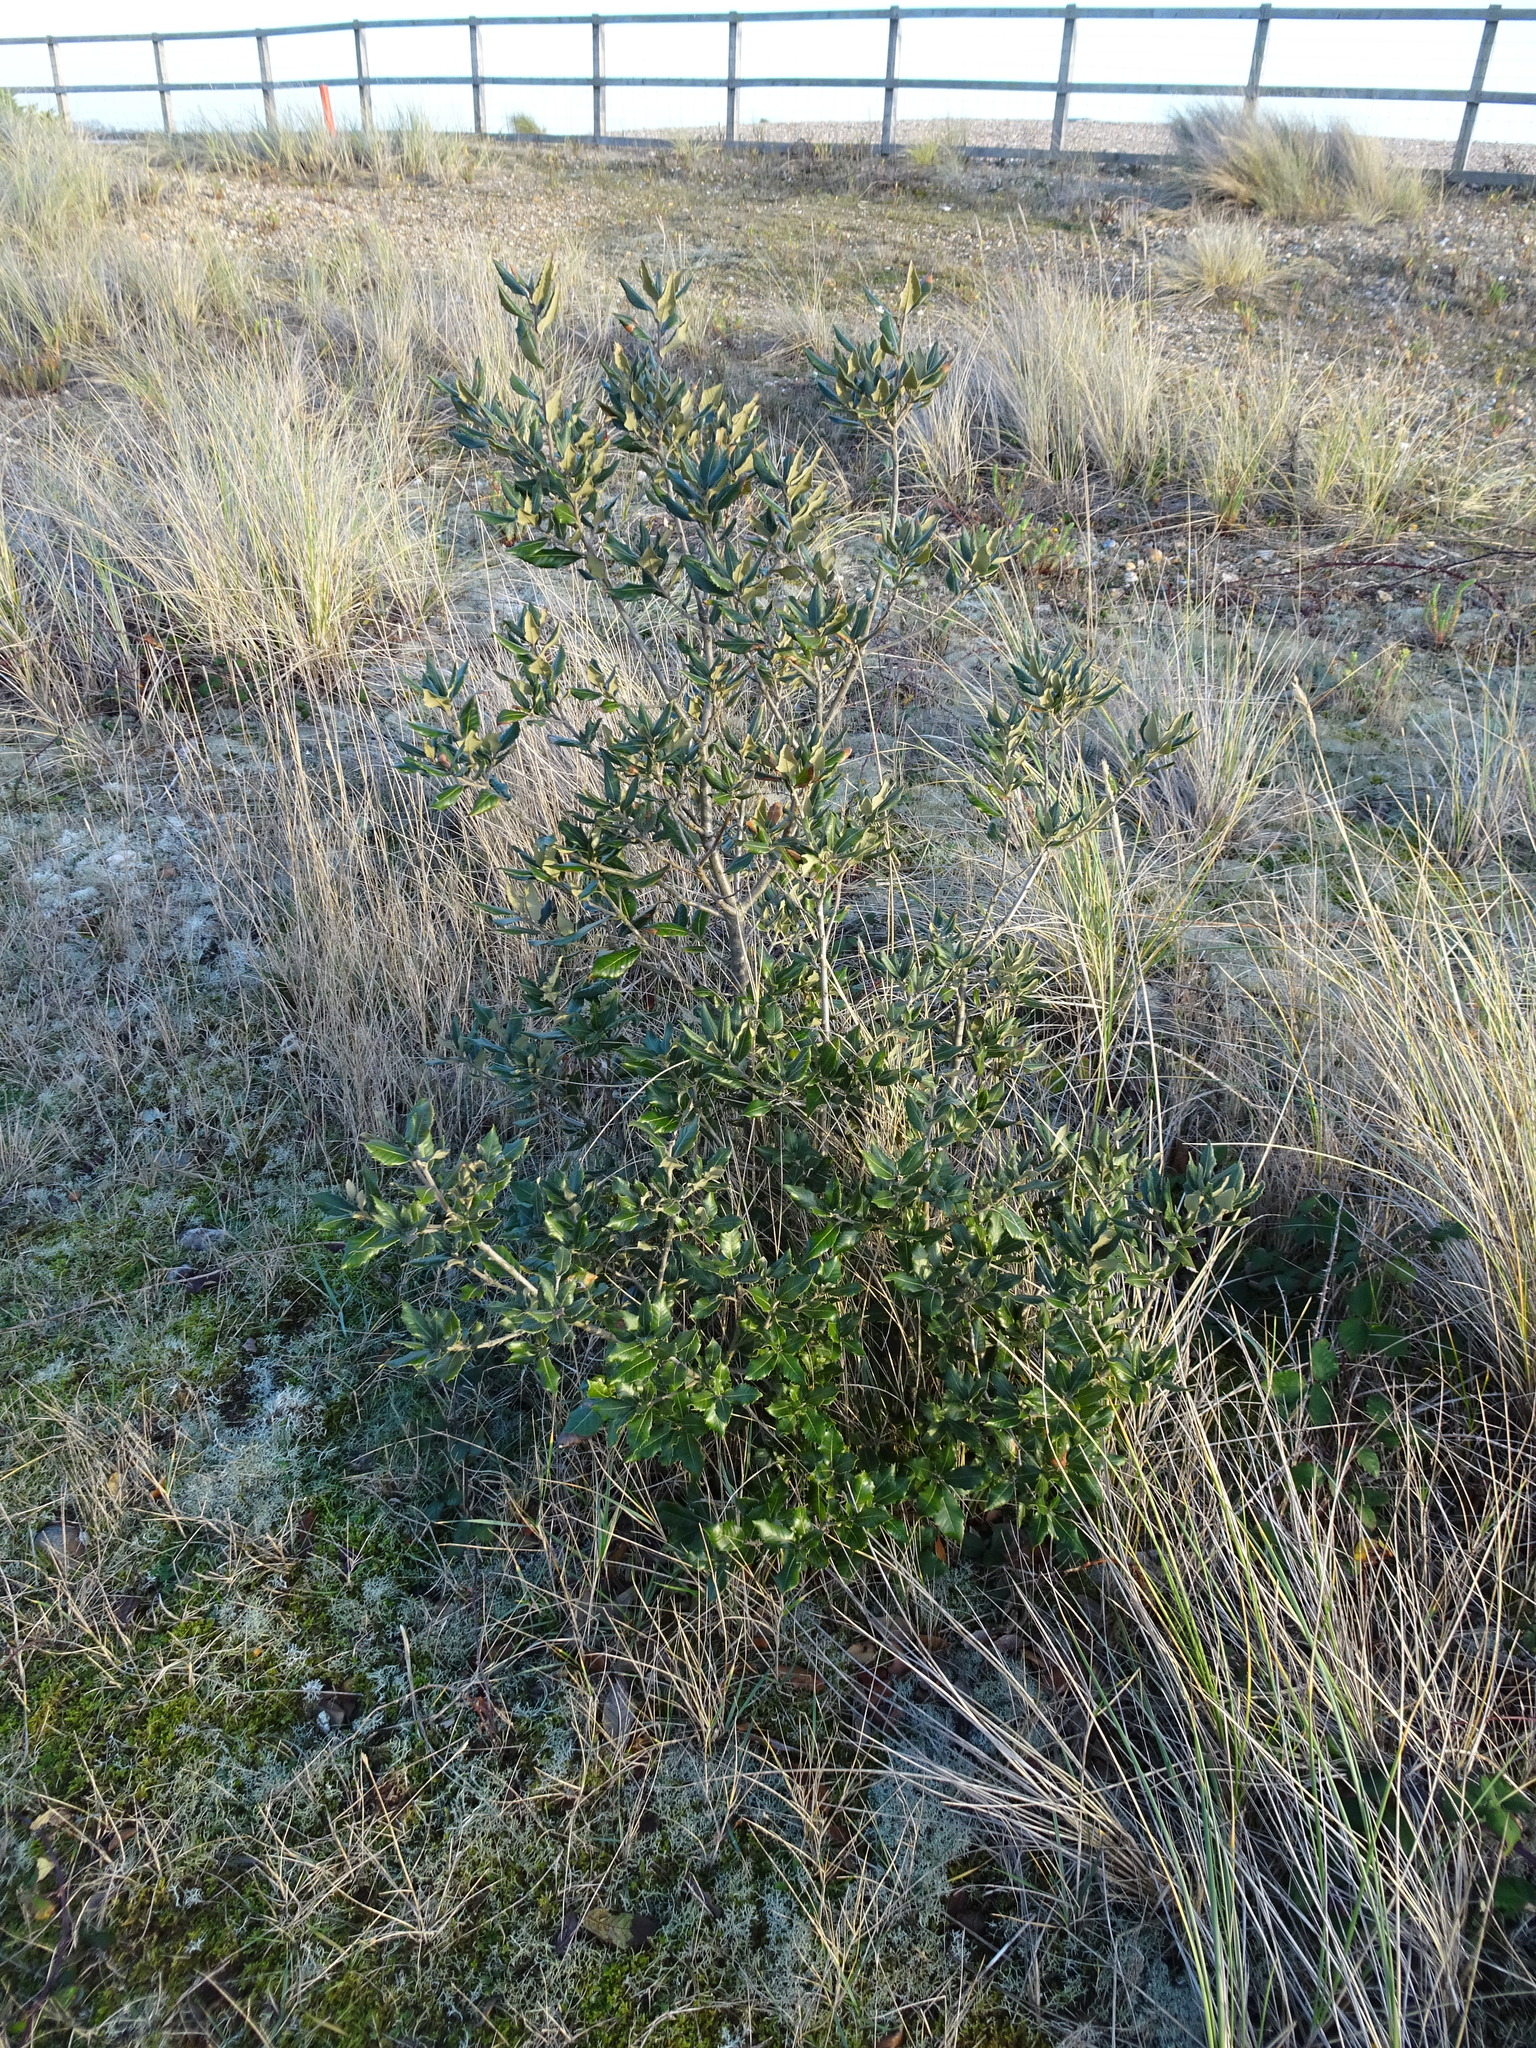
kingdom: Plantae
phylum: Tracheophyta
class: Magnoliopsida
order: Fagales
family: Fagaceae
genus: Quercus
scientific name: Quercus ilex
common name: Evergreen oak
